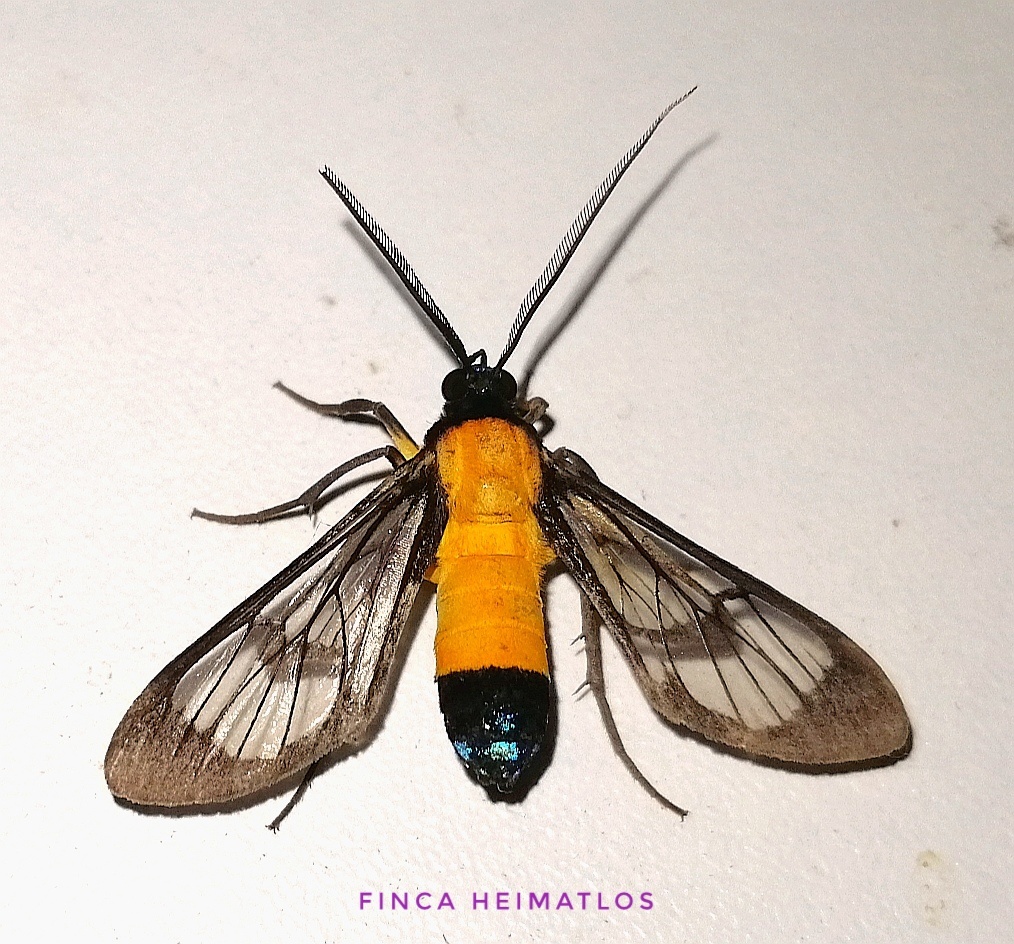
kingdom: Animalia
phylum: Arthropoda
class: Insecta
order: Lepidoptera
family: Erebidae
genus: Cosmosoma
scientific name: Cosmosoma intensa
